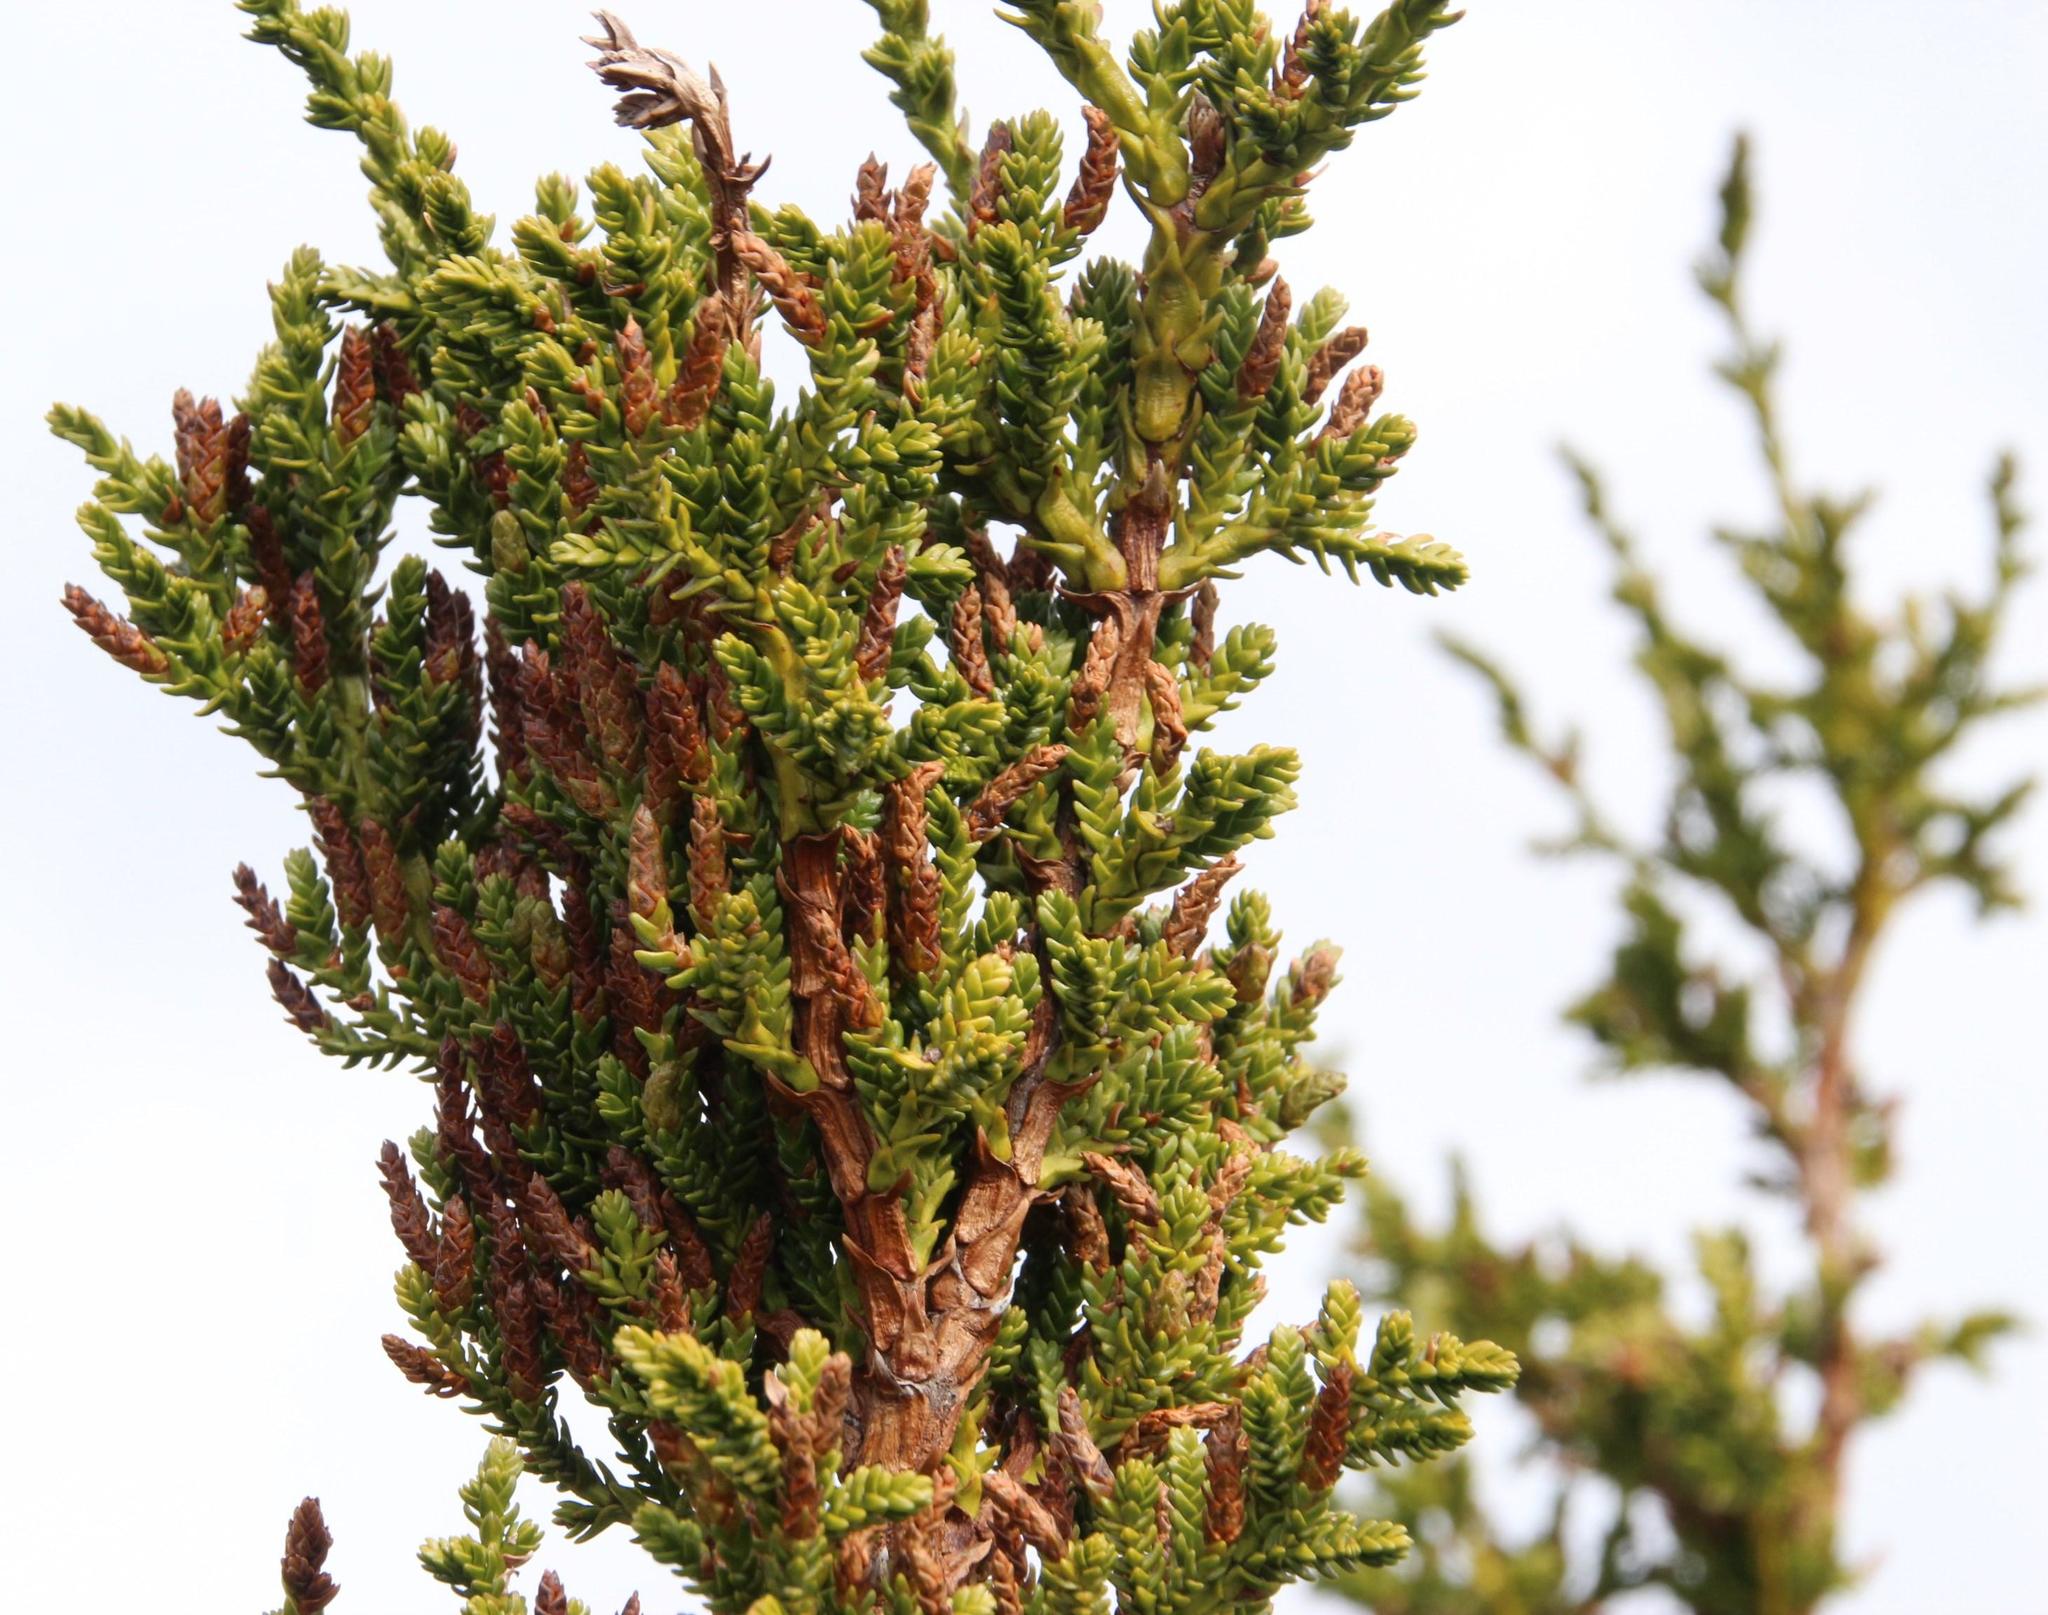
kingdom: Plantae
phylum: Tracheophyta
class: Pinopsida
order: Pinales
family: Cupressaceae
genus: Pilgerodendron
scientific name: Pilgerodendron uviferum
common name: Guaitecas cypress
